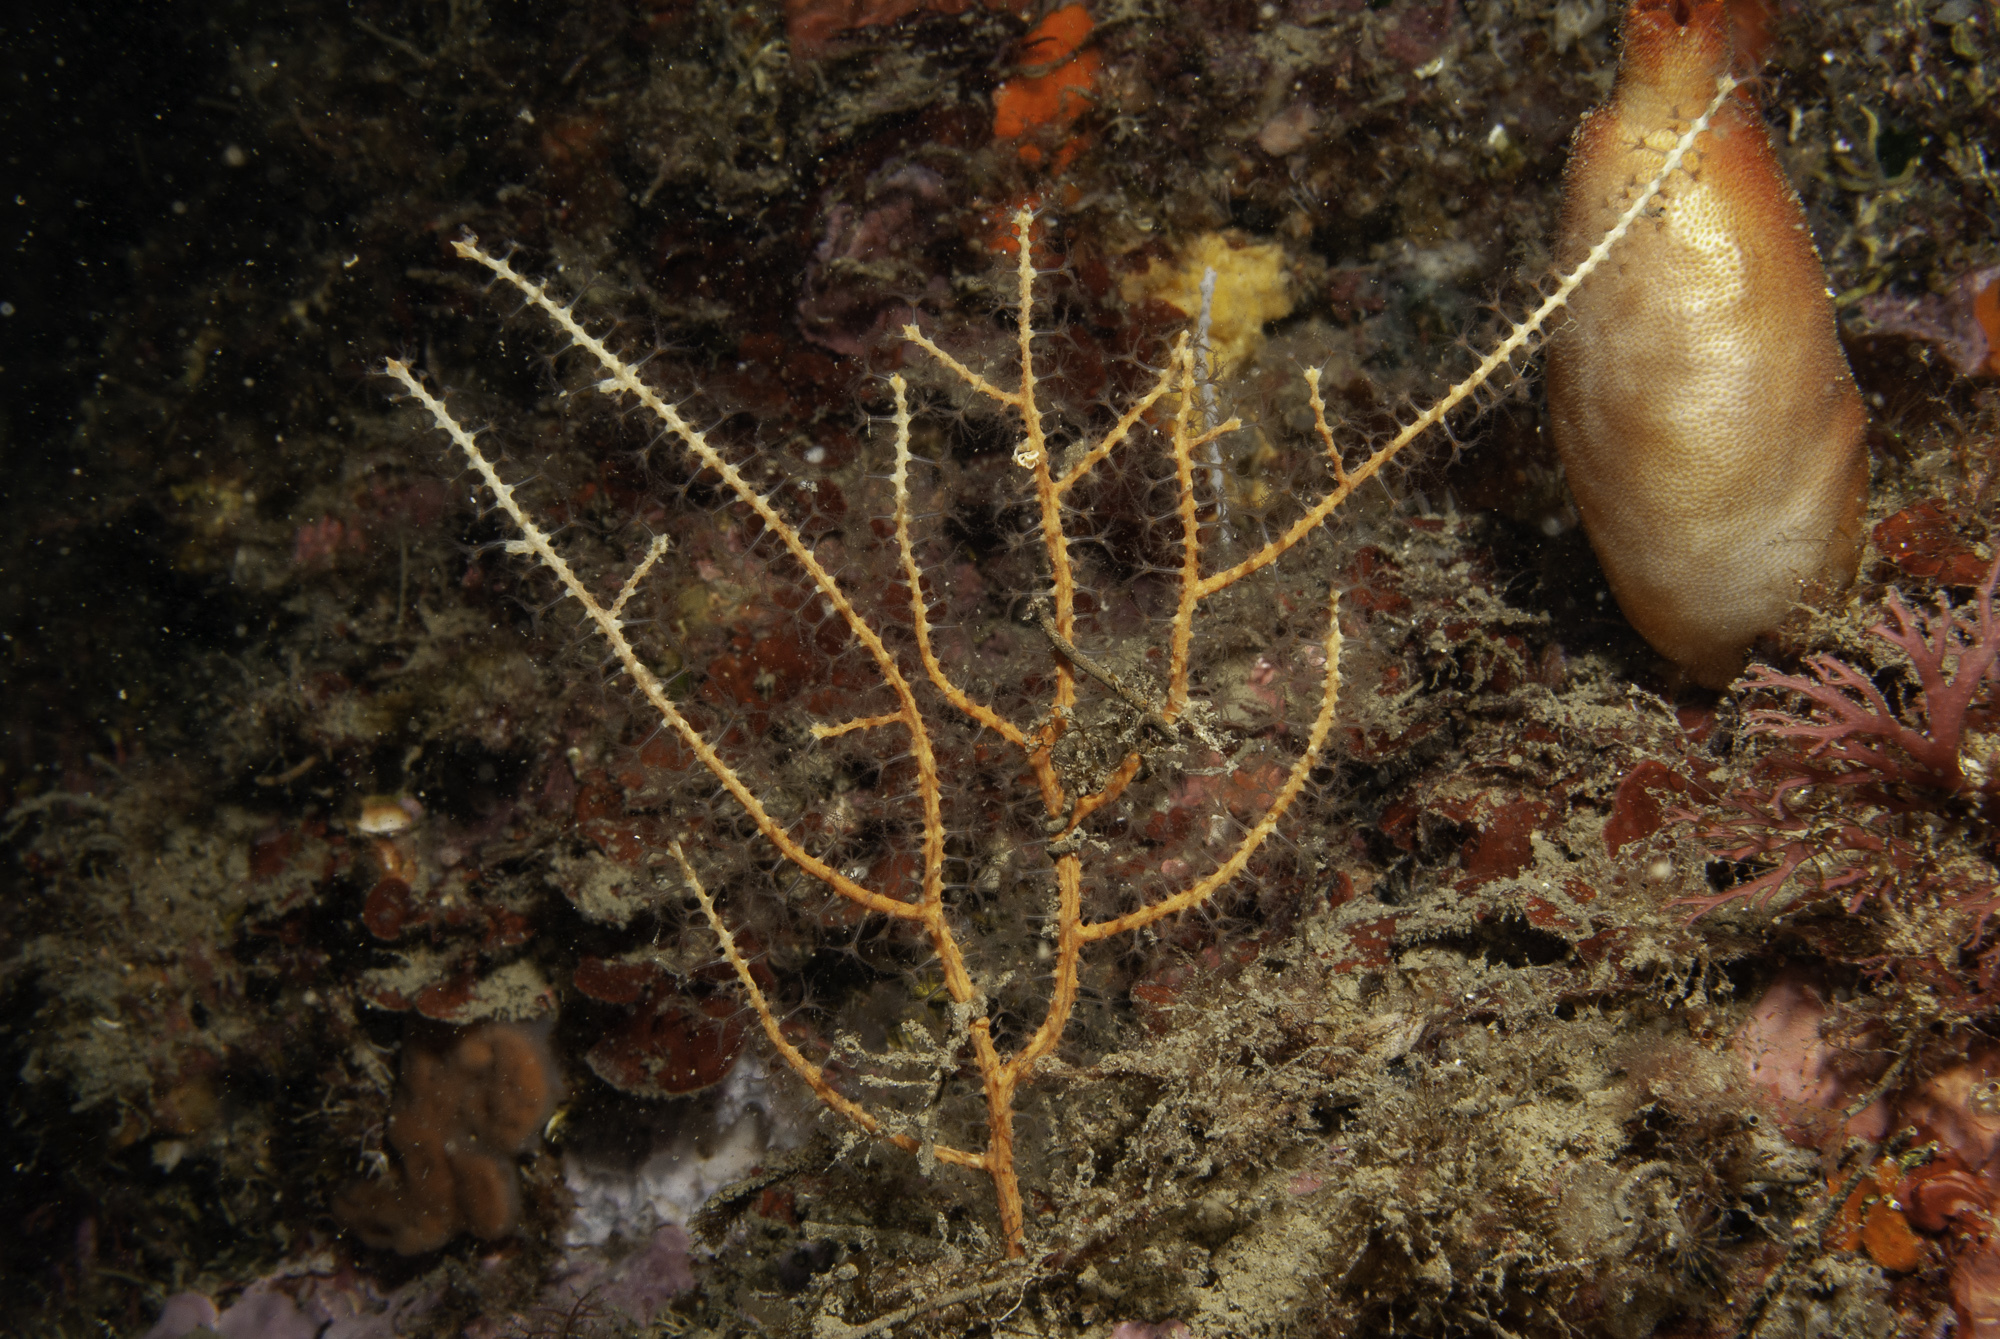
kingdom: Animalia
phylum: Cnidaria
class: Anthozoa
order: Malacalcyonacea
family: Gorgoniidae
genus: Leptogorgia
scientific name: Leptogorgia sarmentosa
